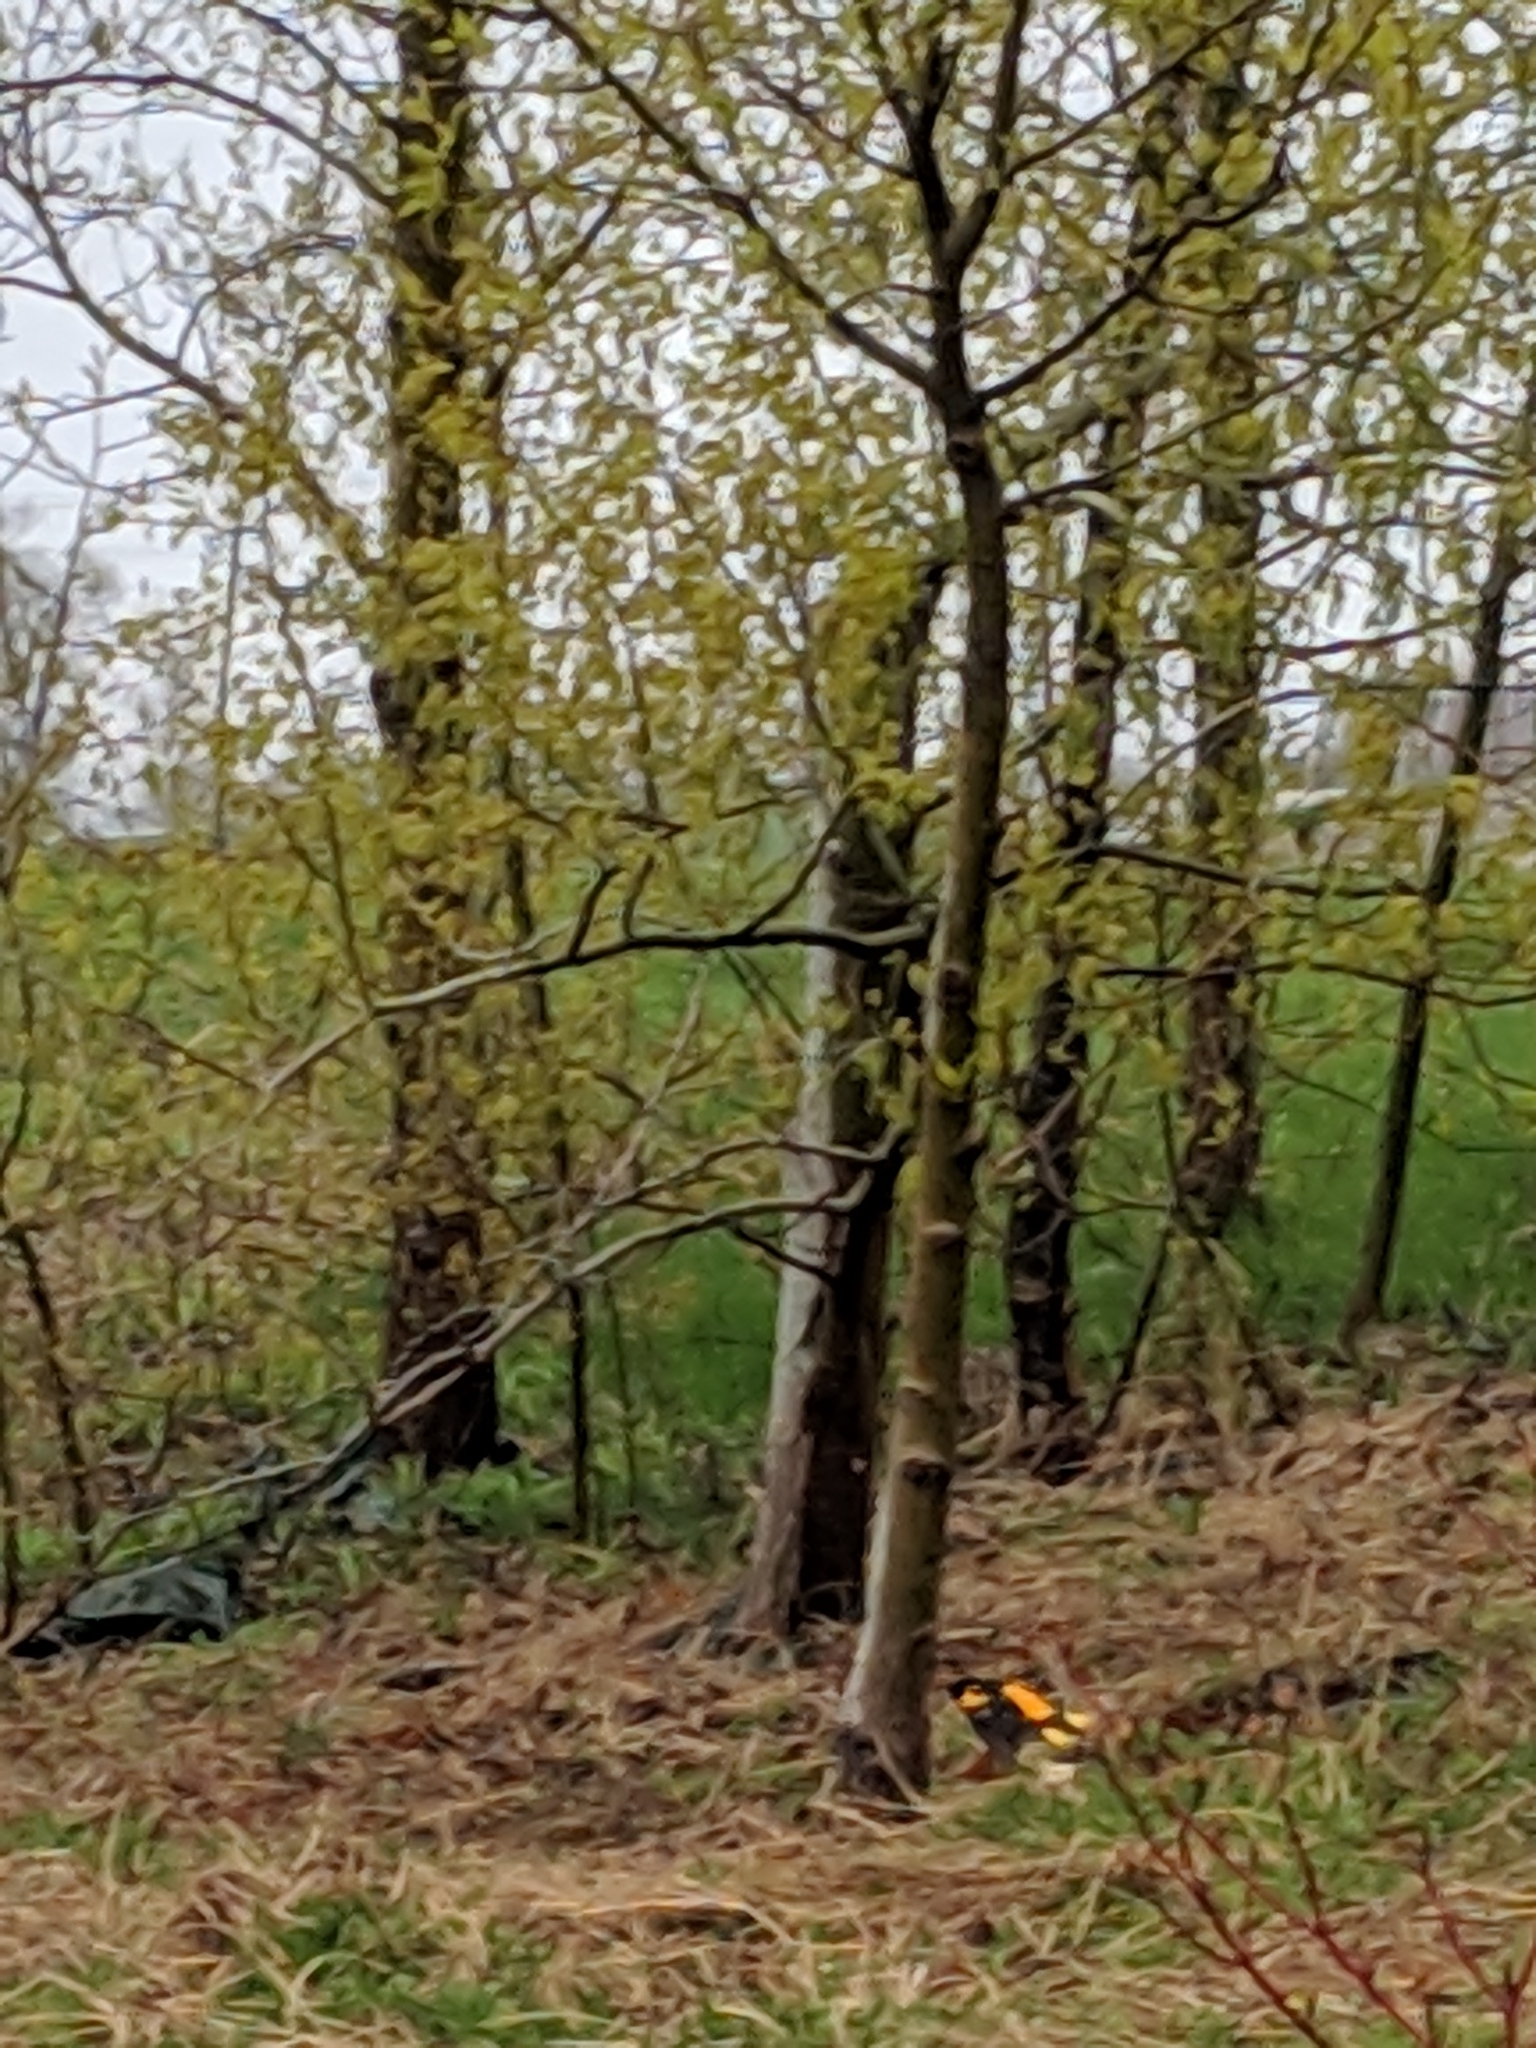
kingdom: Animalia
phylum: Chordata
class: Aves
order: Passeriformes
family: Icteridae
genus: Icterus
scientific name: Icterus galbula
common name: Baltimore oriole
